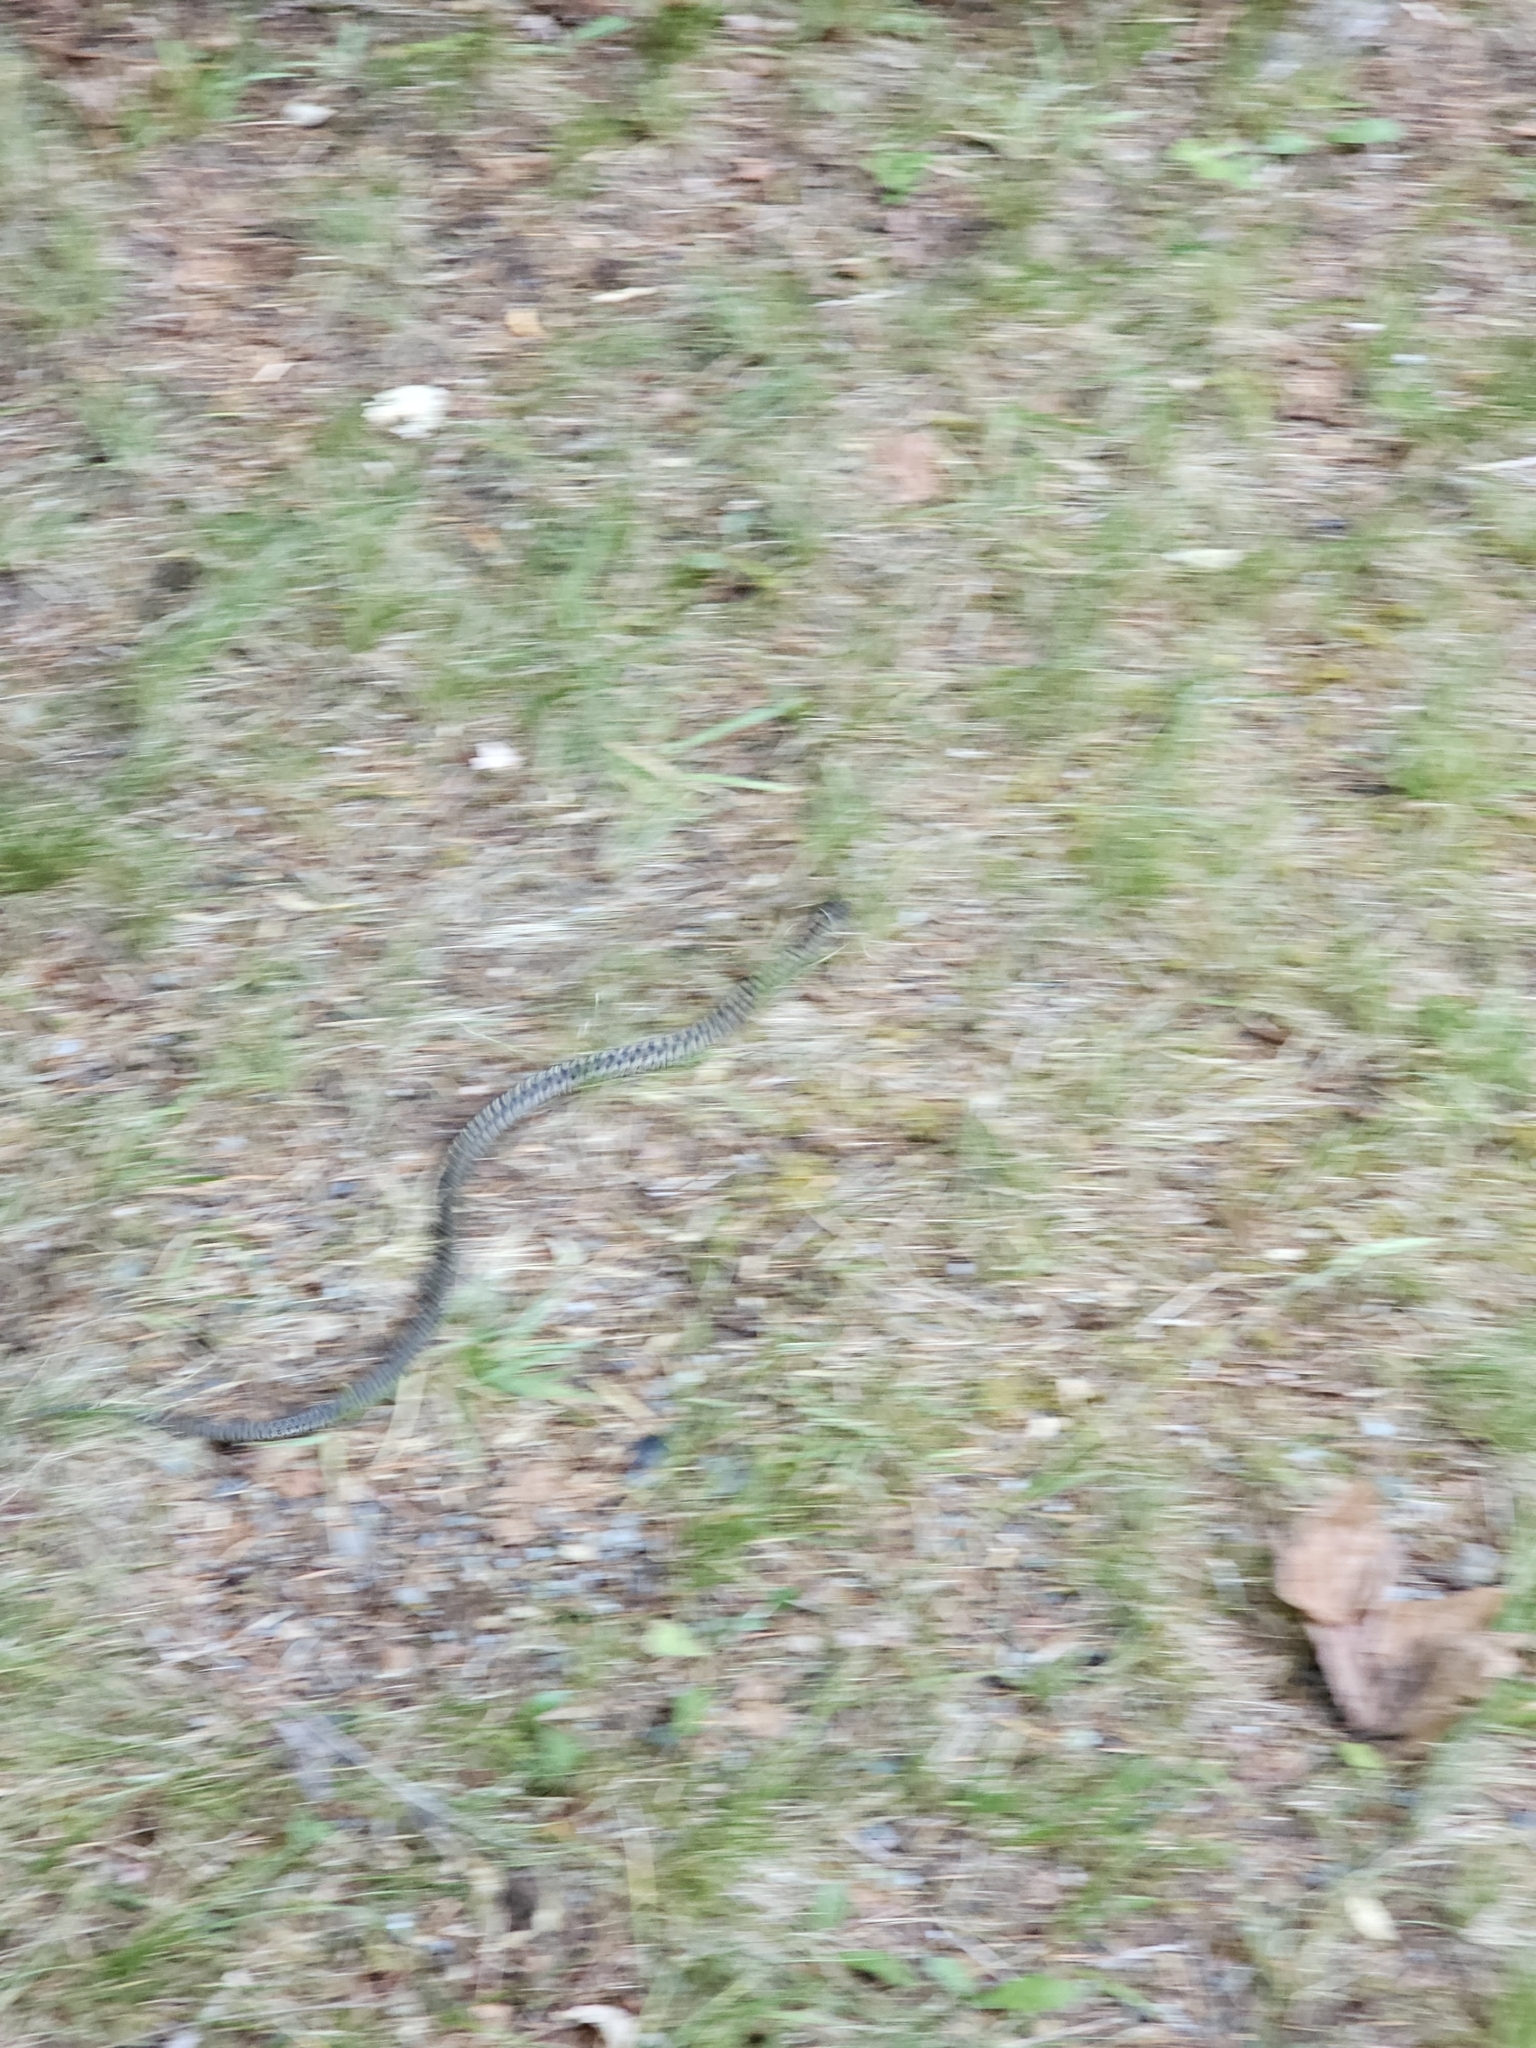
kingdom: Animalia
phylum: Chordata
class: Squamata
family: Colubridae
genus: Thamnophis
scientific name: Thamnophis elegans
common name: Western terrestrial garter snake
